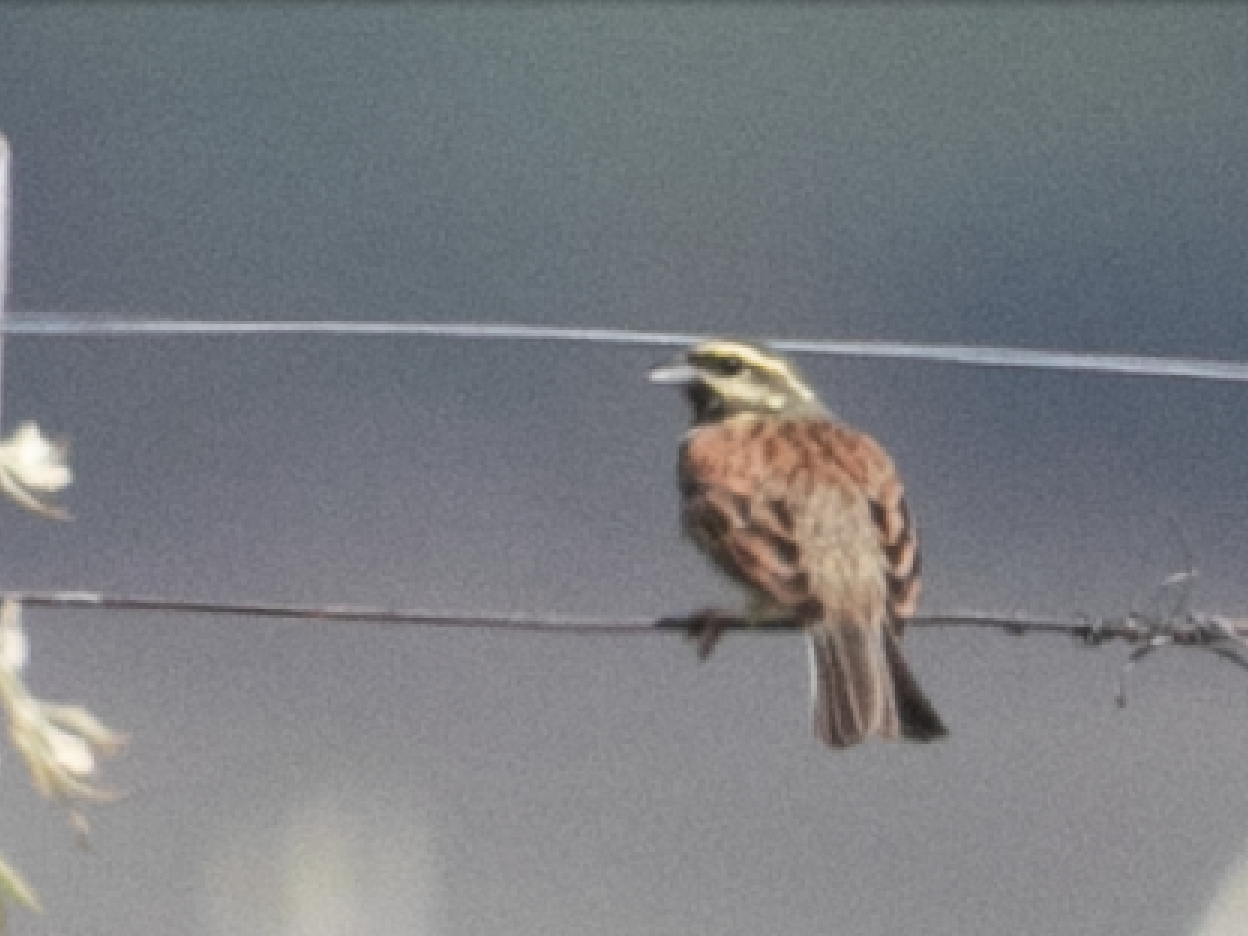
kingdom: Animalia
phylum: Chordata
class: Aves
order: Passeriformes
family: Emberizidae
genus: Emberiza
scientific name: Emberiza cirlus
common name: Cirl bunting
